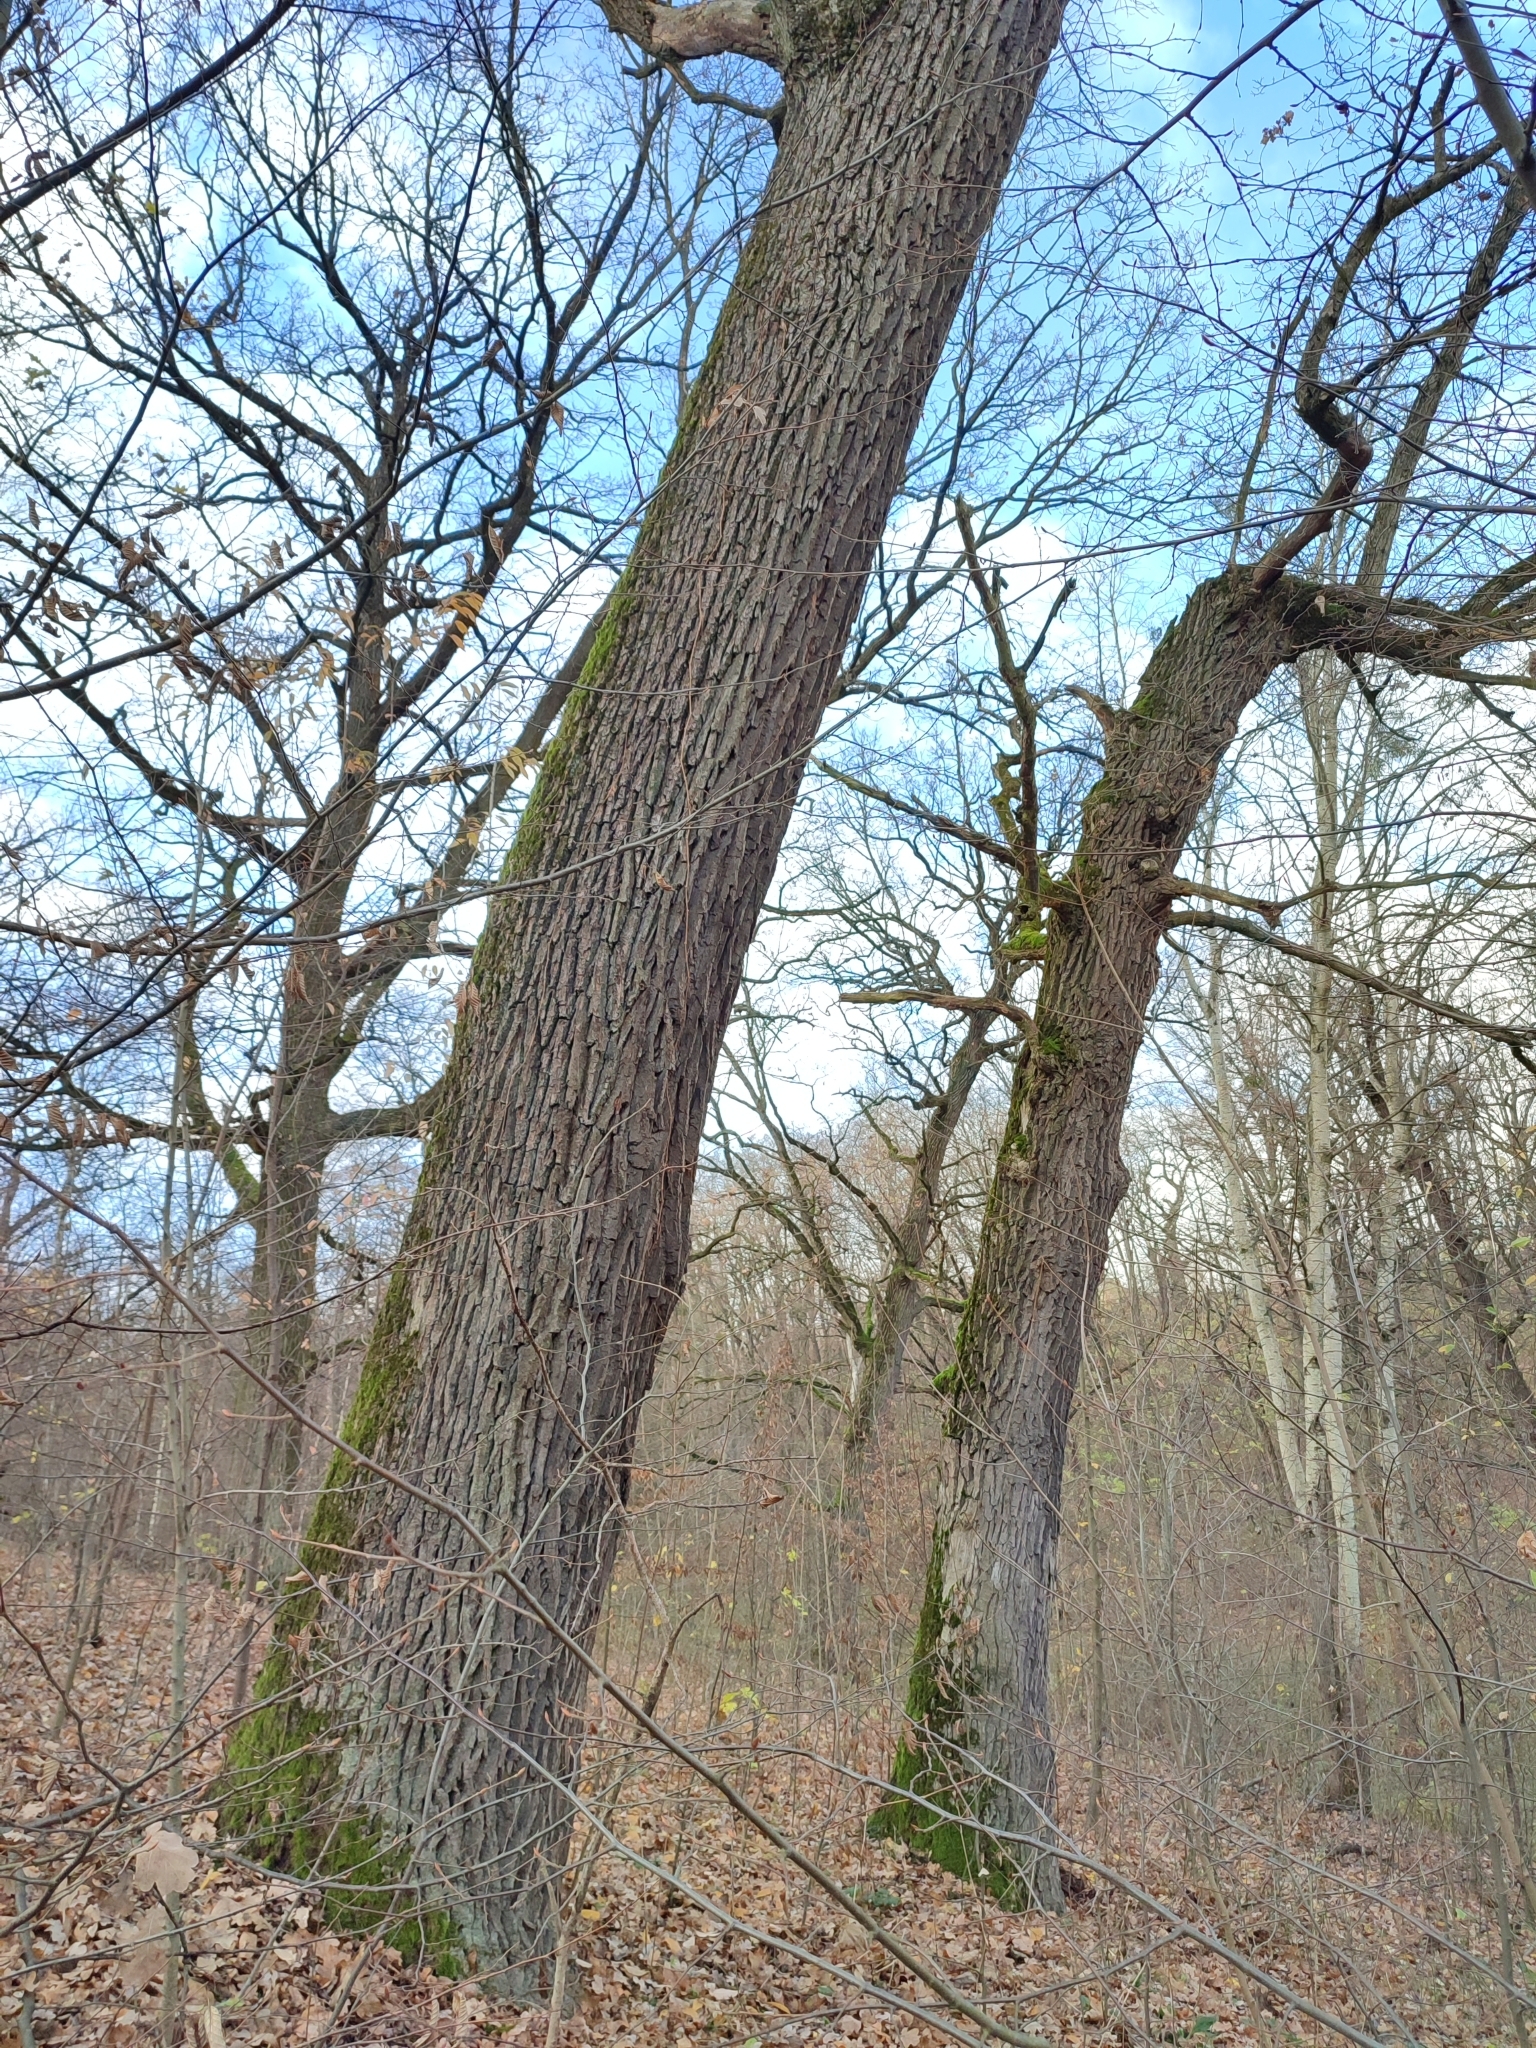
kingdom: Plantae
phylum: Tracheophyta
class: Magnoliopsida
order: Fagales
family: Fagaceae
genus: Quercus
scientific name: Quercus robur
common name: Pedunculate oak
